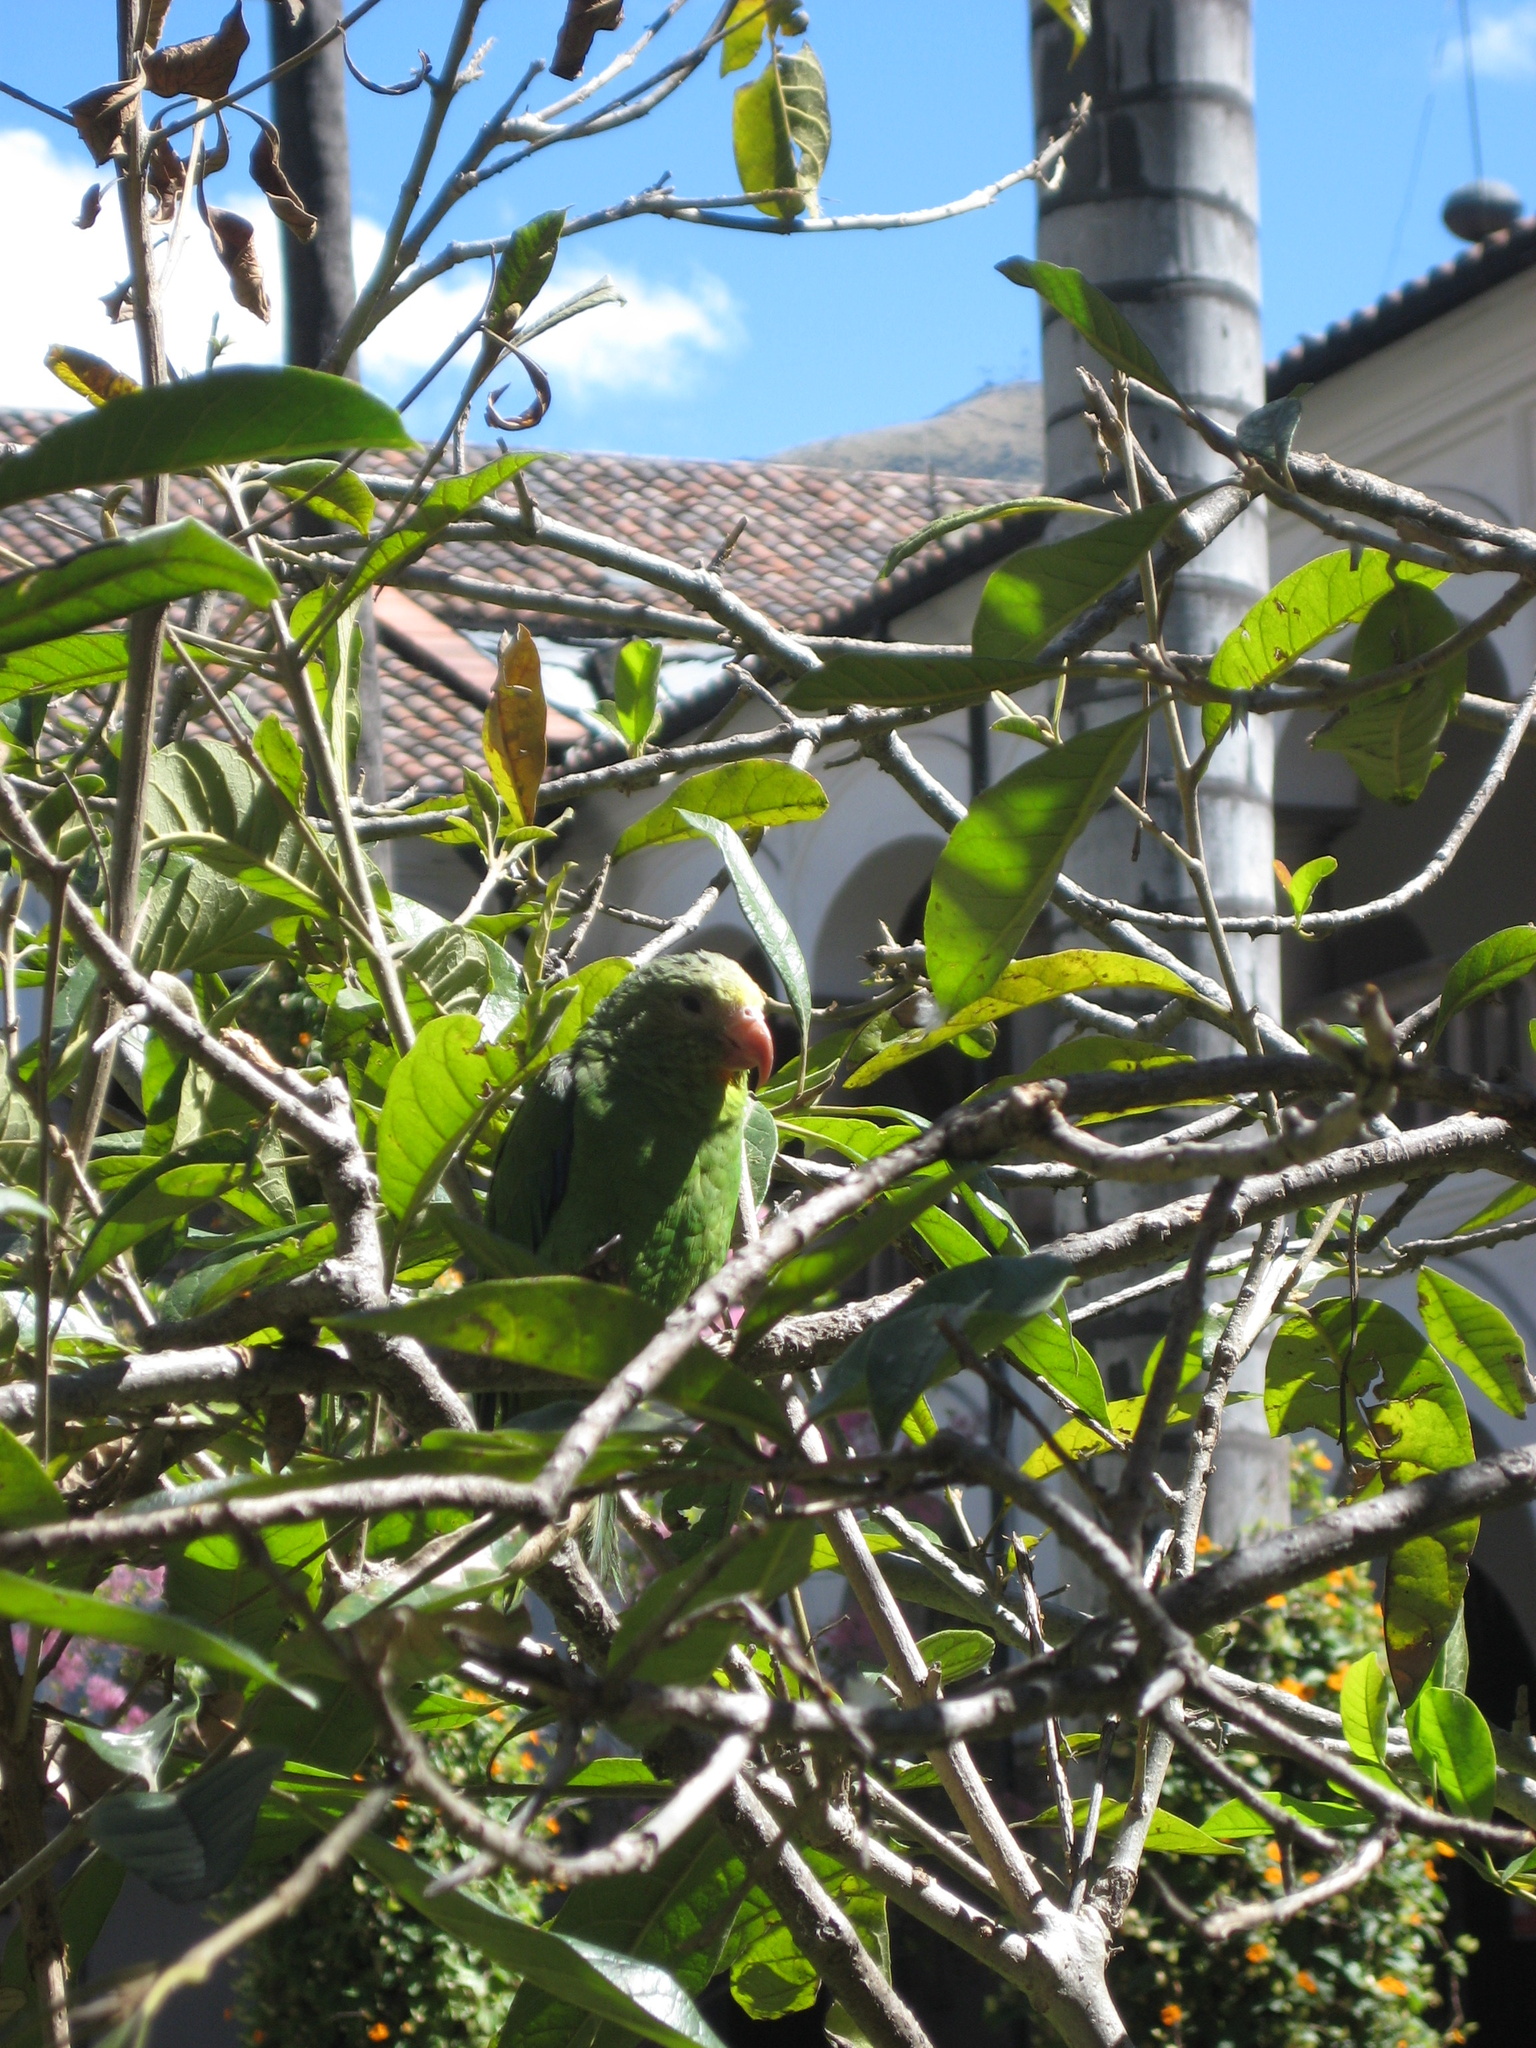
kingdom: Animalia
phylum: Chordata
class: Aves
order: Psittaciformes
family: Psittacidae
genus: Brotogeris
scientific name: Brotogeris cyanoptera
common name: Cobalt-winged parakeet
